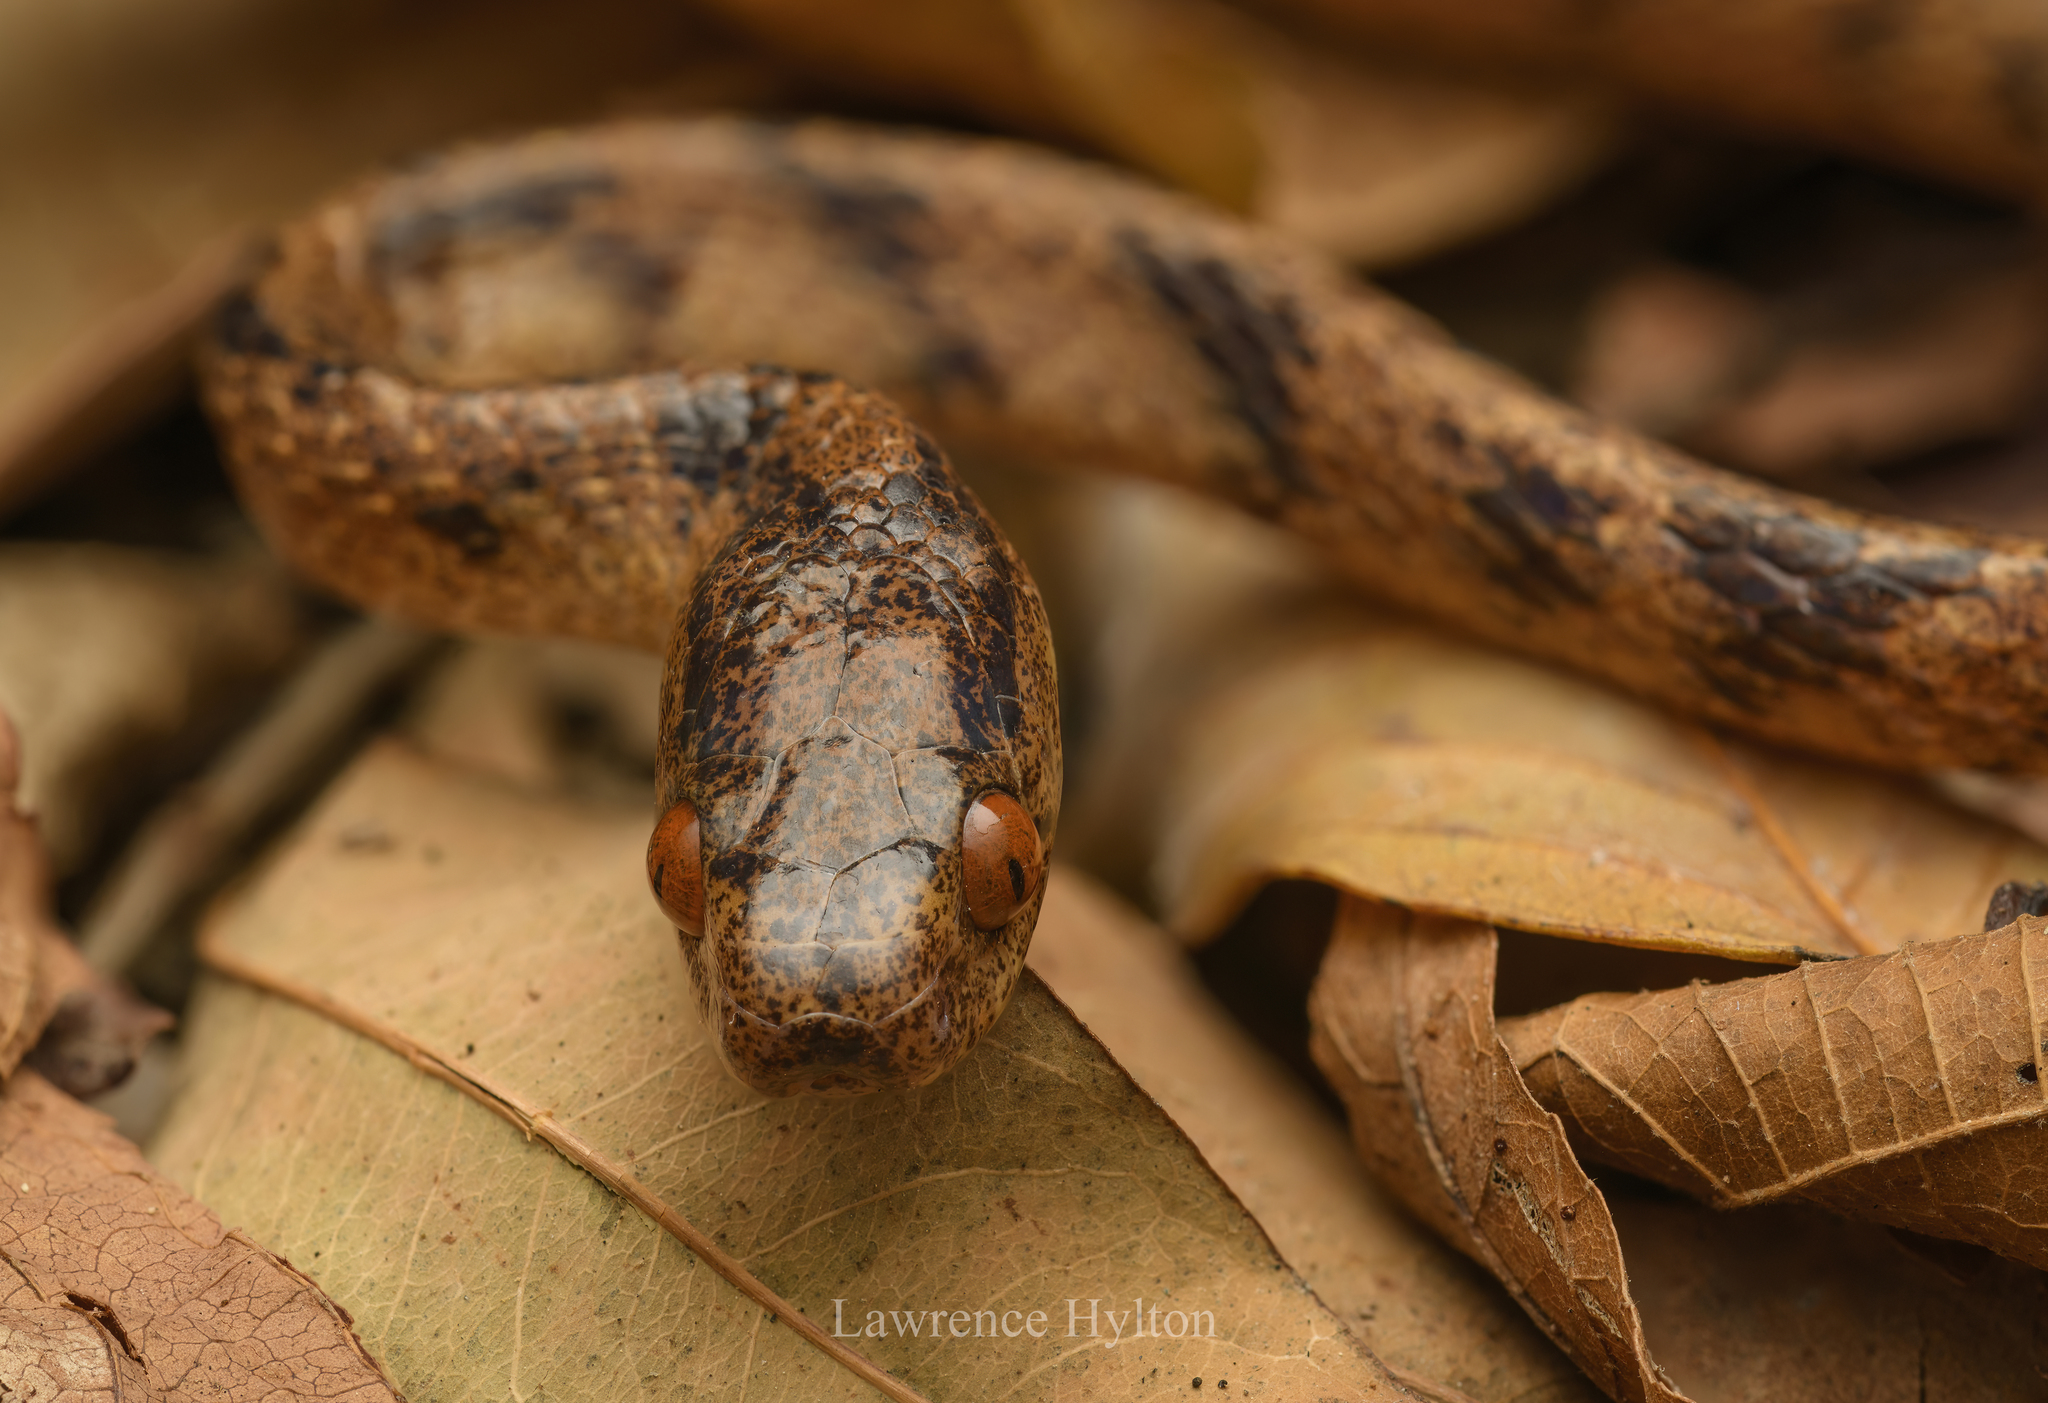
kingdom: Animalia
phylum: Chordata
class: Squamata
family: Pareidae
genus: Pareas
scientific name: Pareas chinensis
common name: Chinese slug snake
